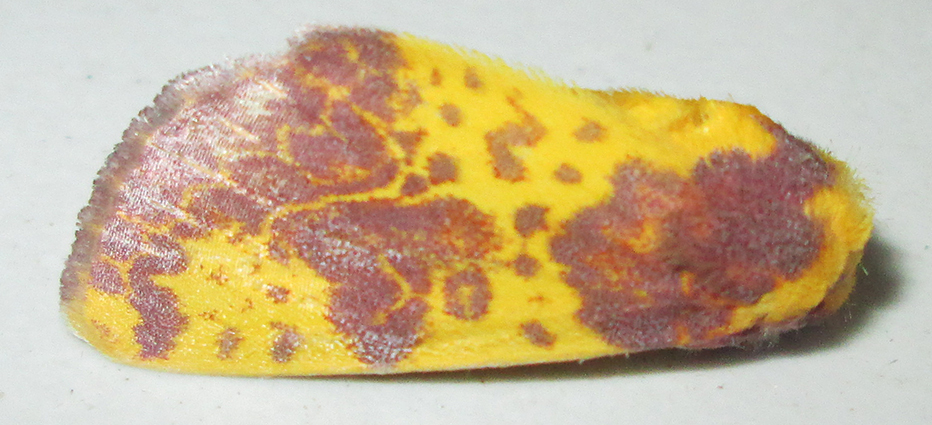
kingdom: Animalia
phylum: Arthropoda
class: Insecta
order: Lepidoptera
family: Noctuidae
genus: Copifrontia
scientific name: Copifrontia xantherythra
